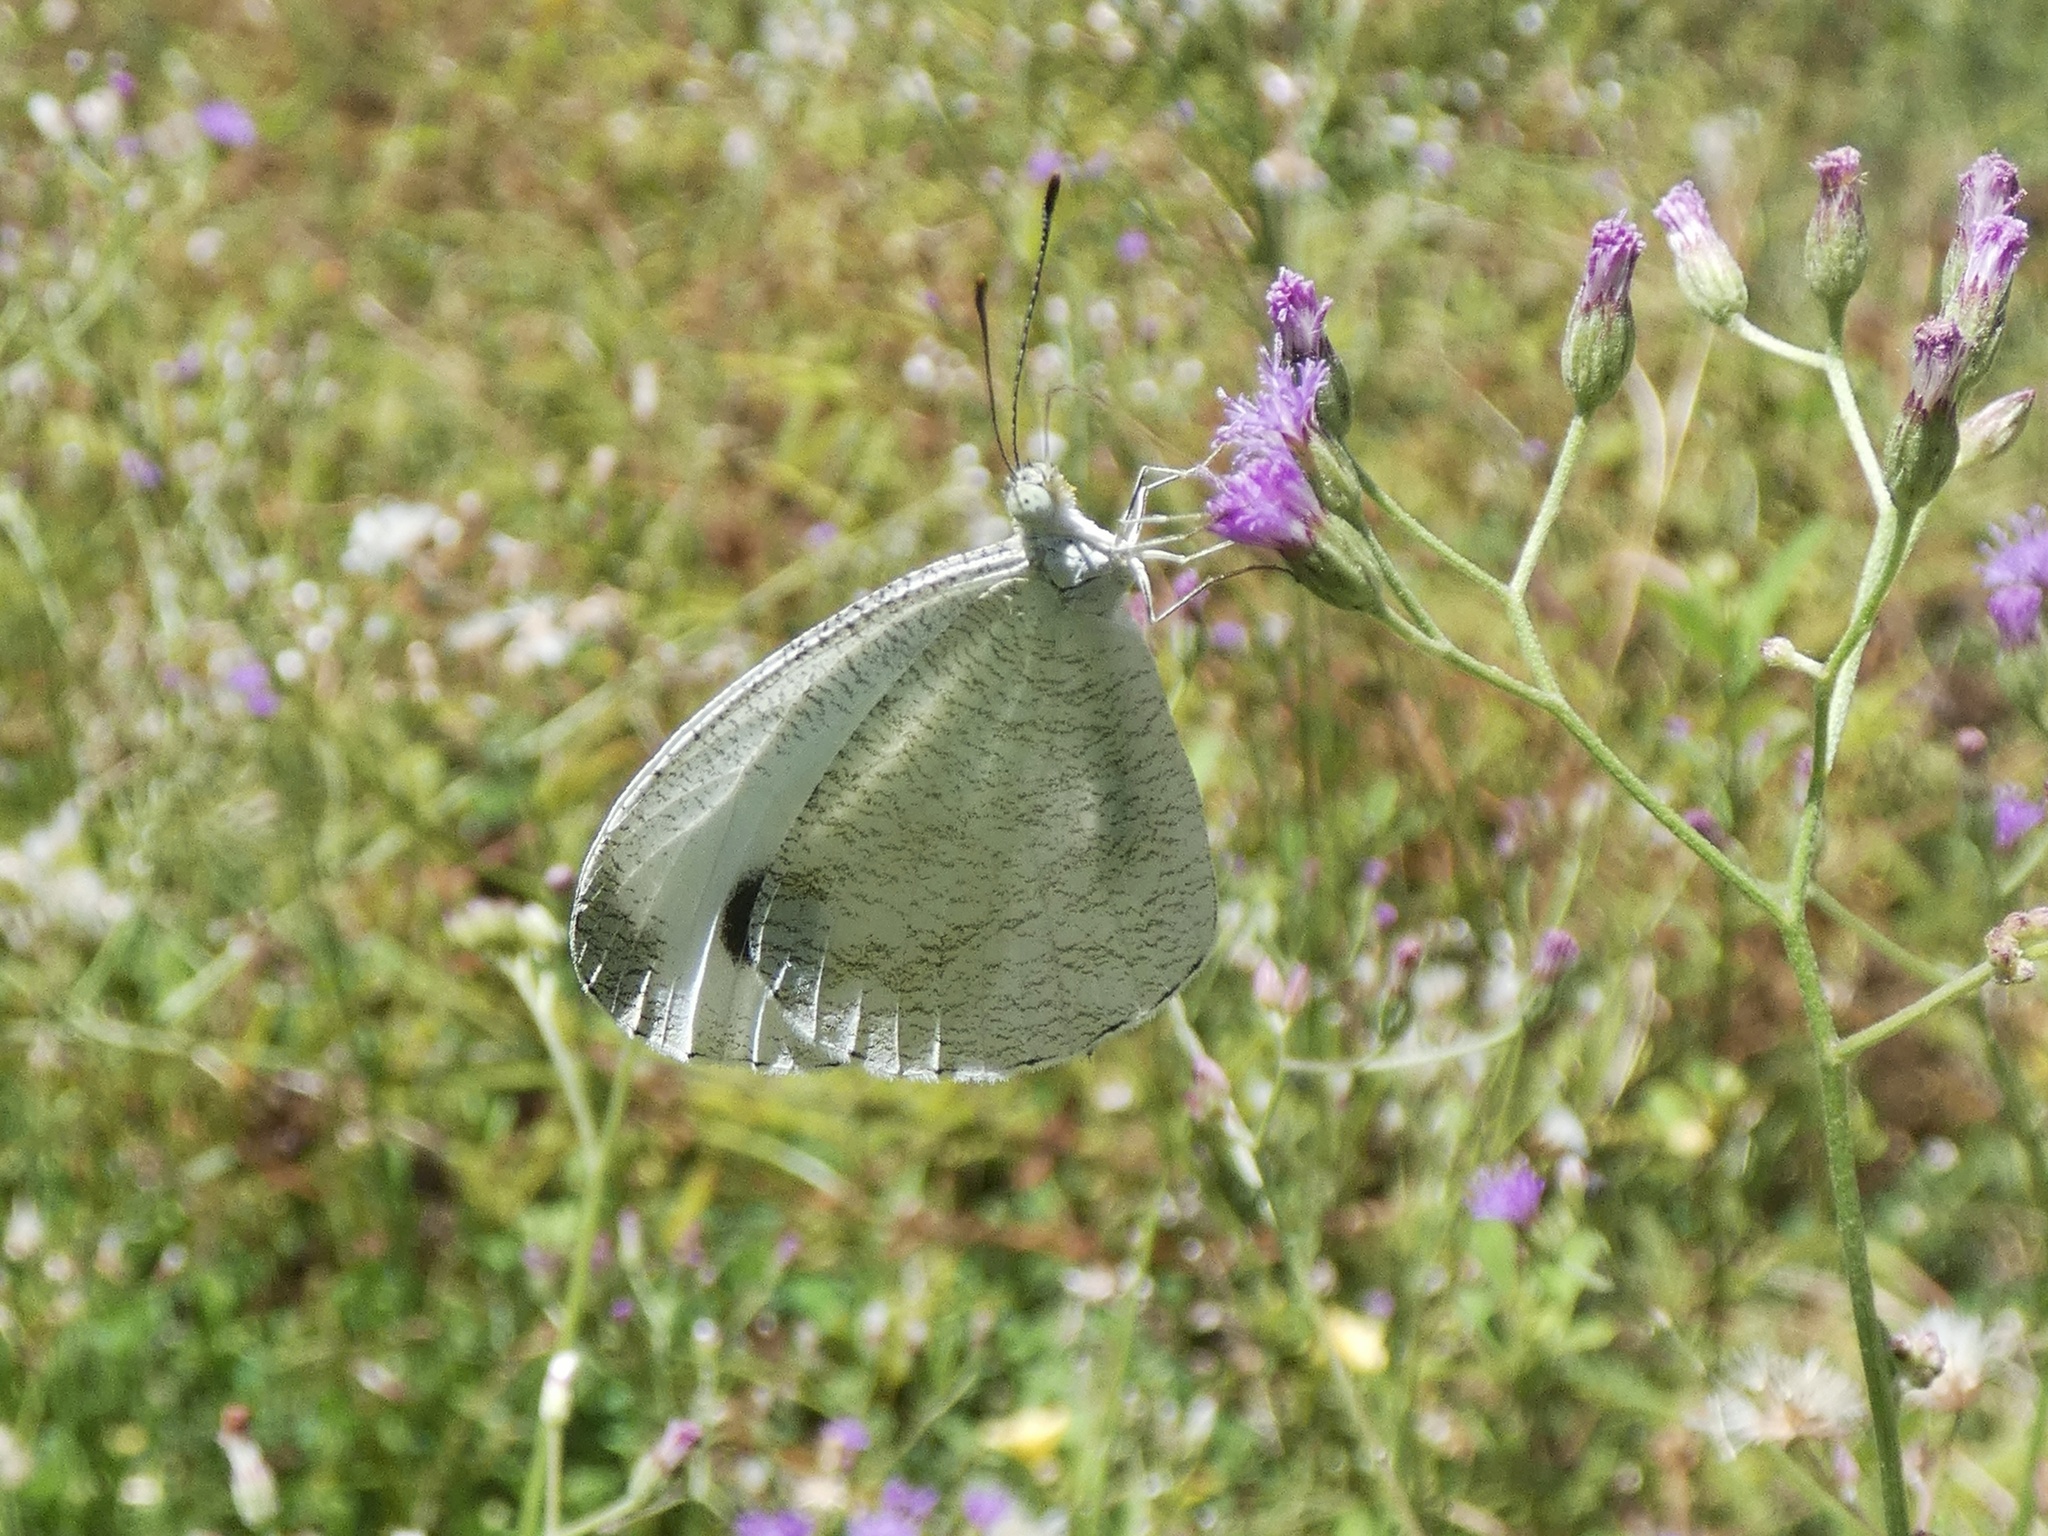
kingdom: Animalia
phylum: Arthropoda
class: Insecta
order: Lepidoptera
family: Pieridae
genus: Leptosia
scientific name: Leptosia nina
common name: Psyche
